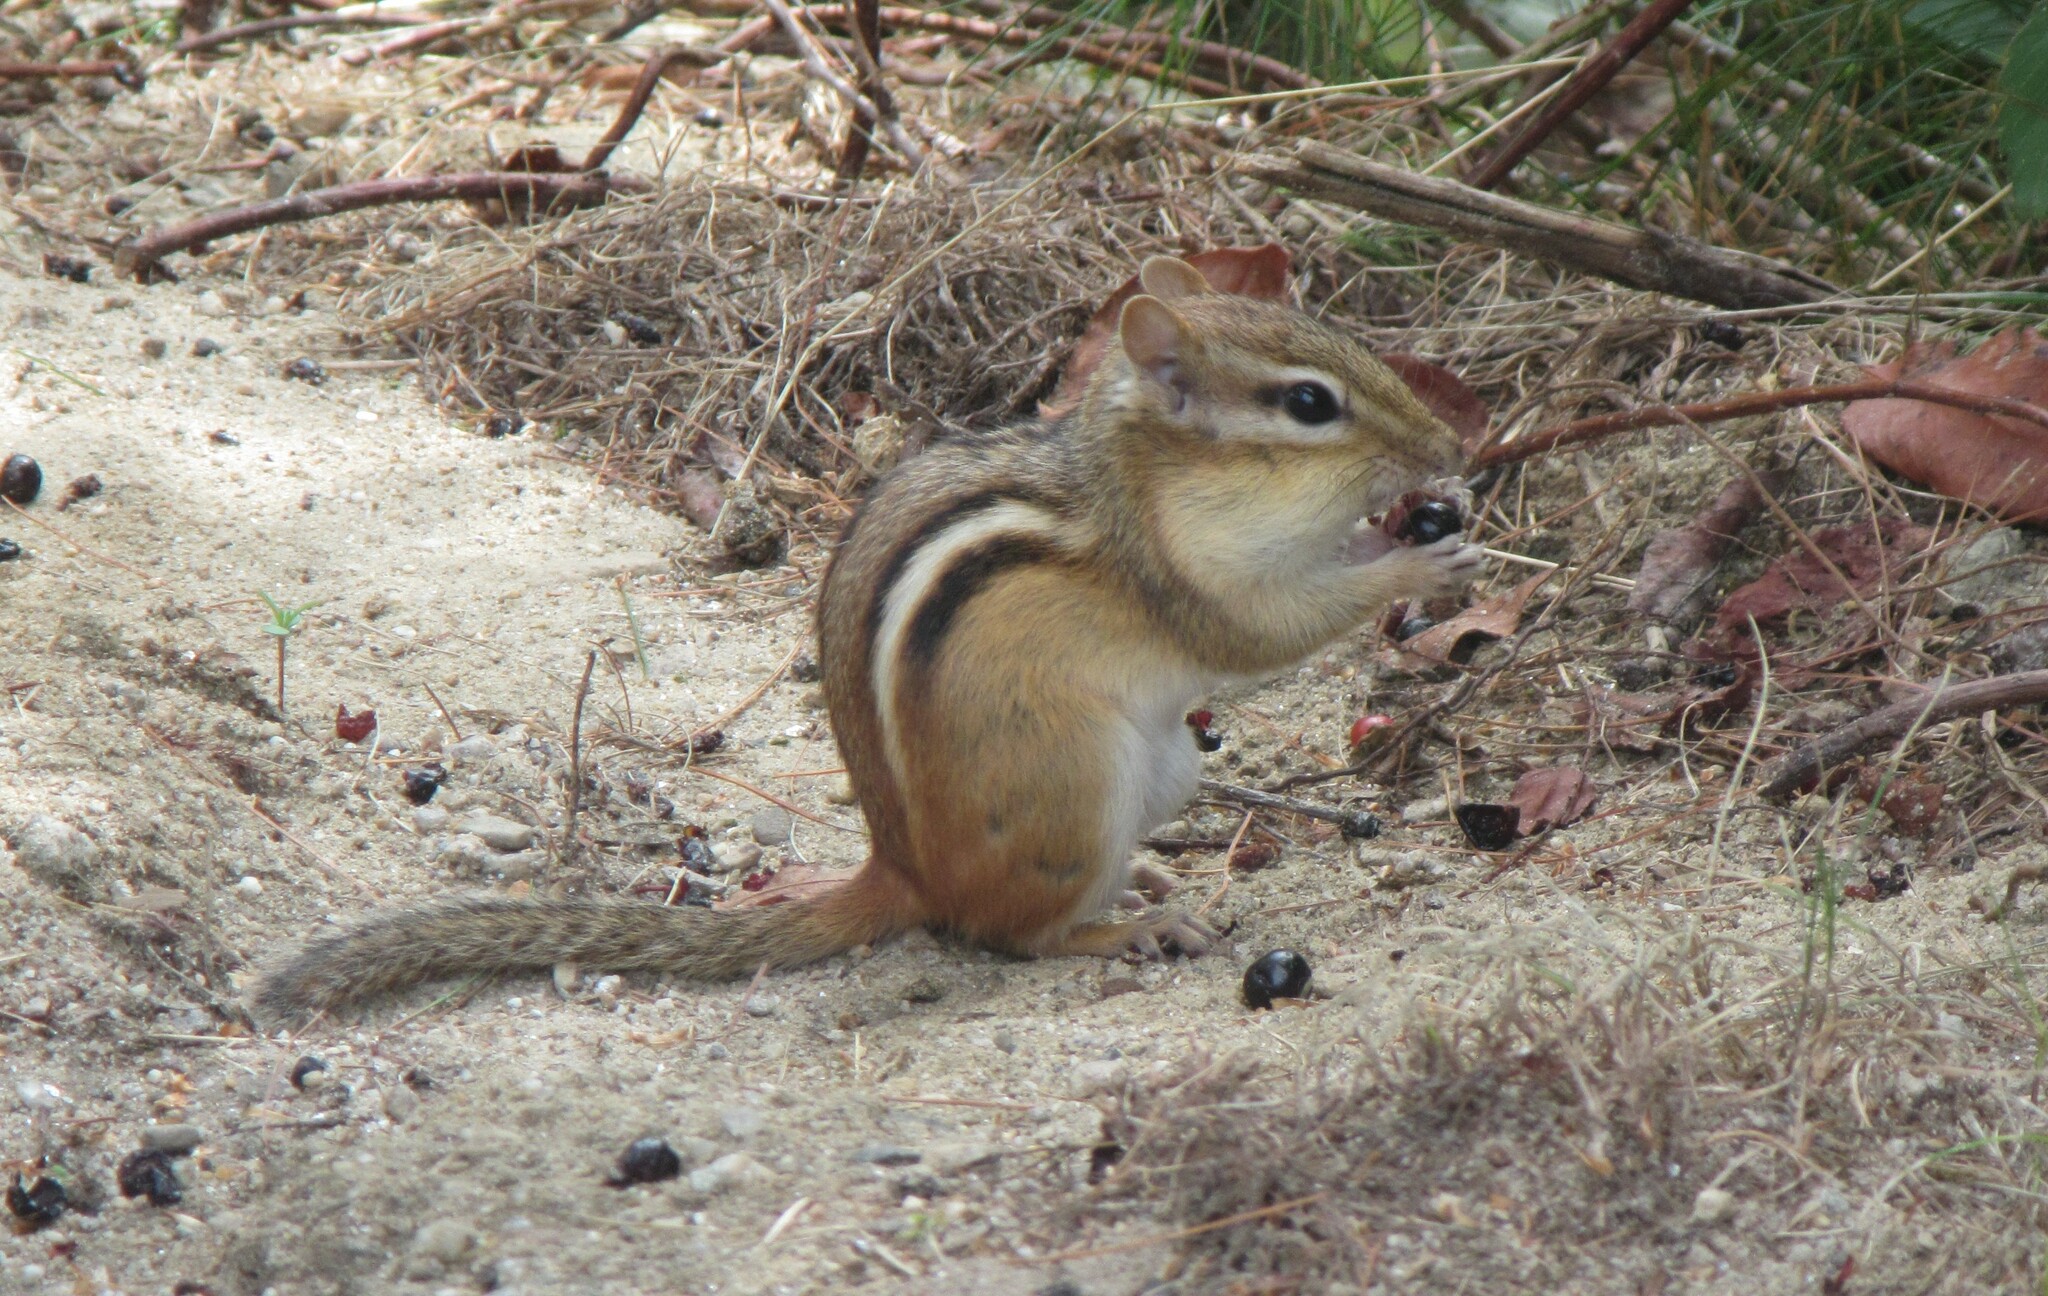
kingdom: Animalia
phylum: Chordata
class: Mammalia
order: Rodentia
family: Sciuridae
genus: Tamias
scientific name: Tamias striatus
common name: Eastern chipmunk
